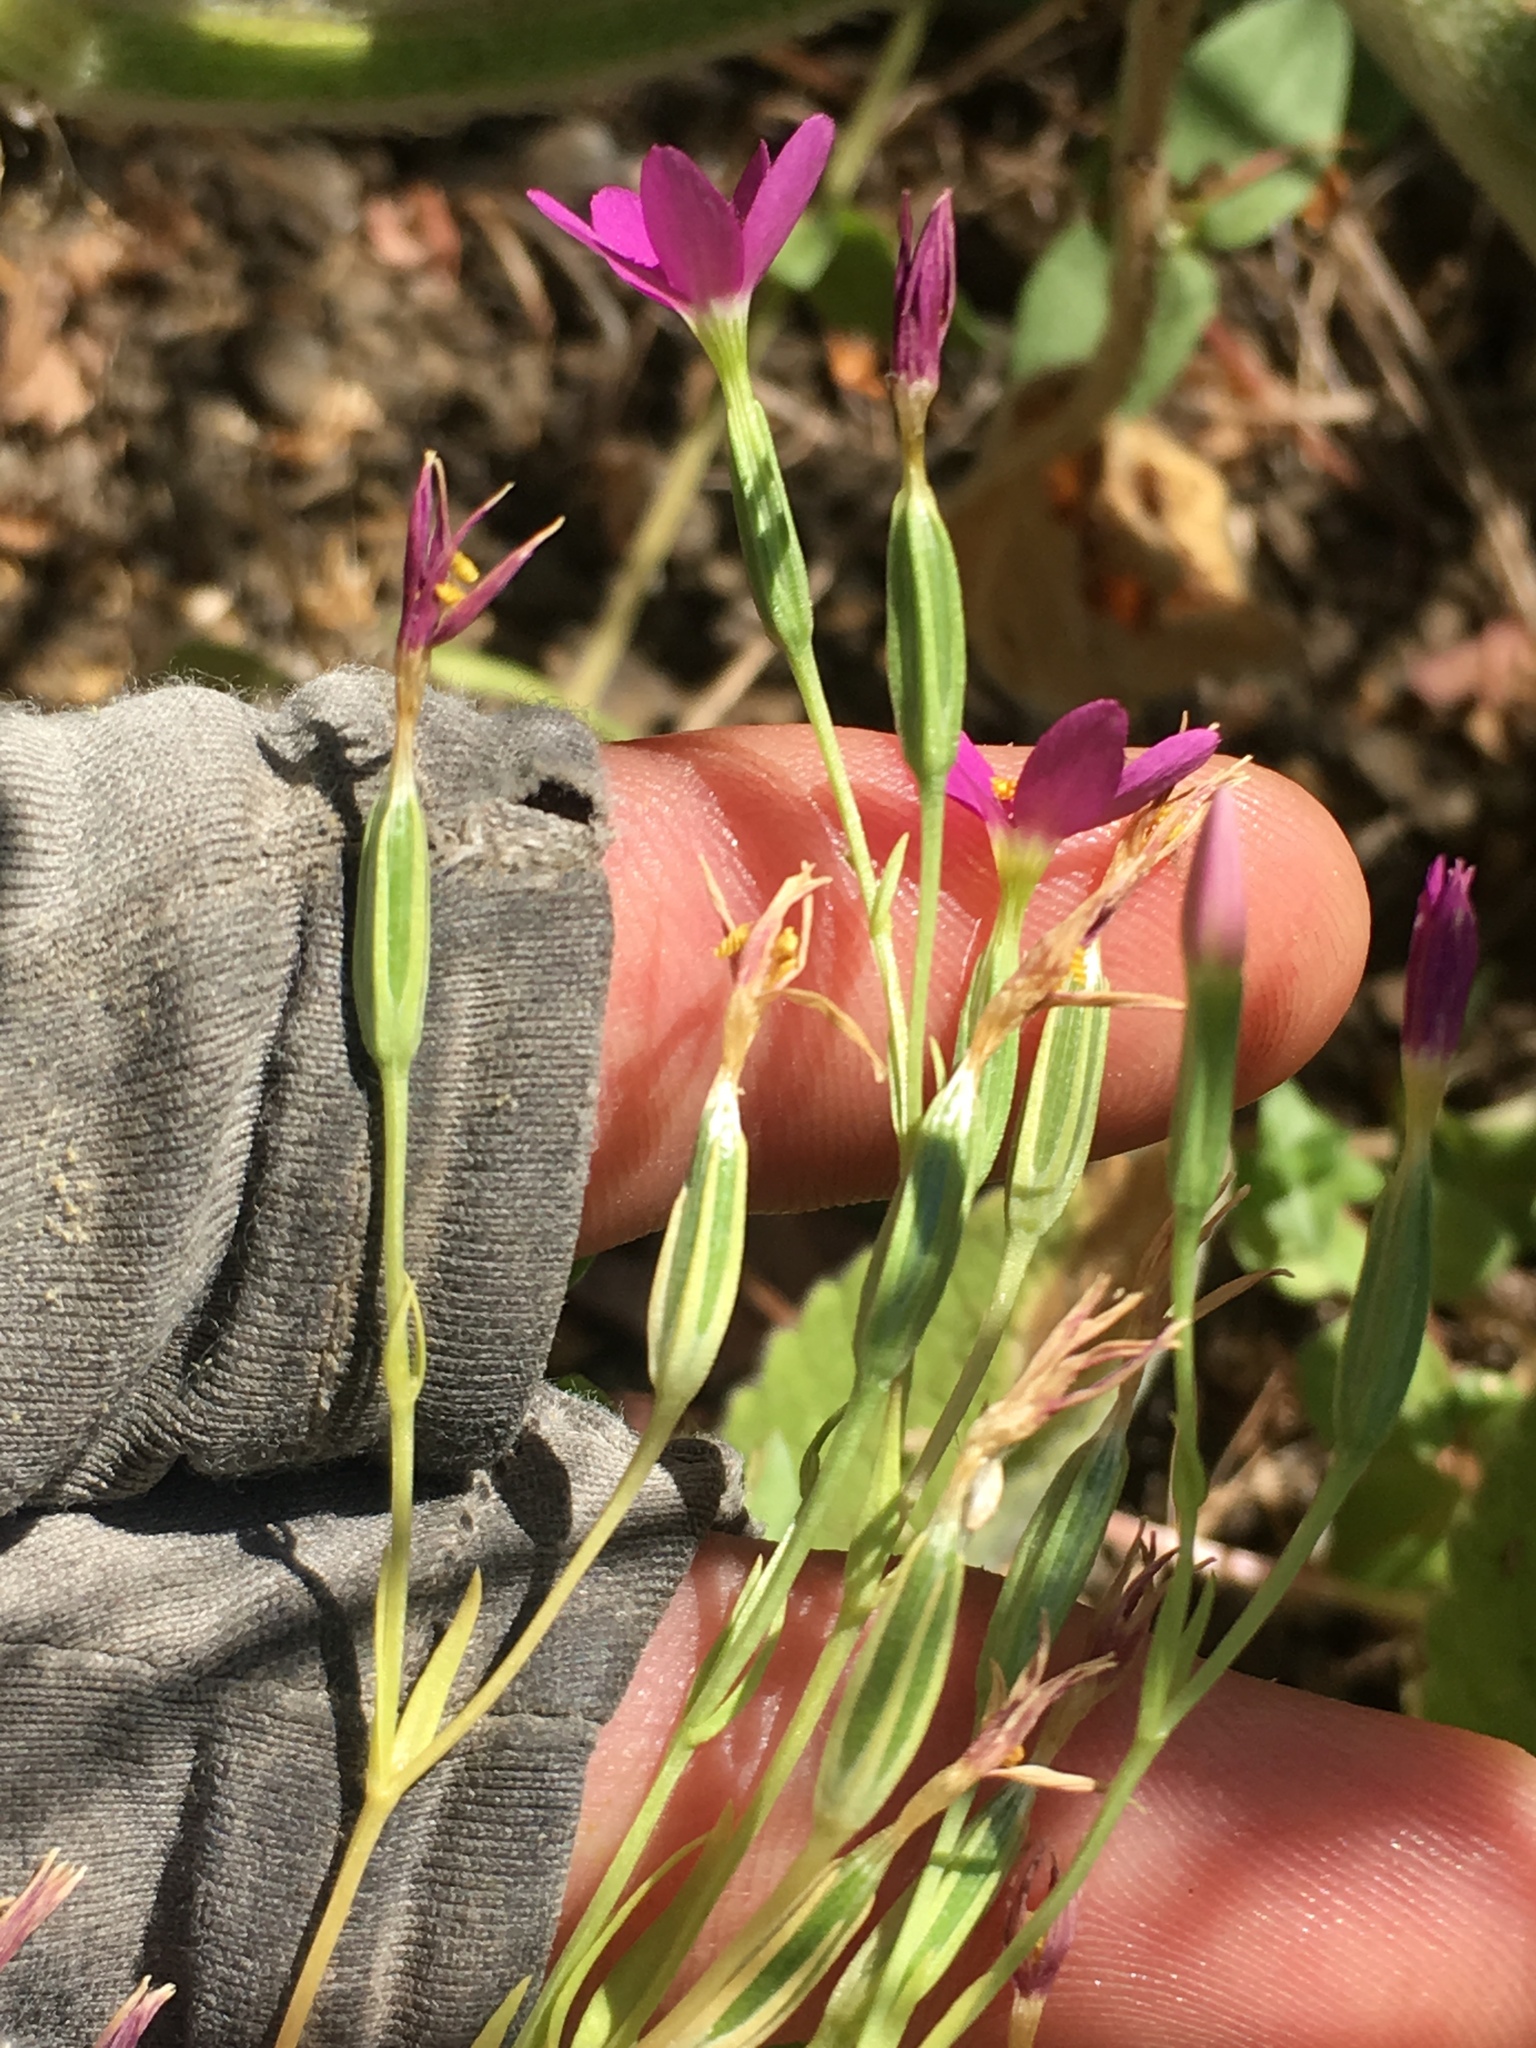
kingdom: Plantae
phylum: Tracheophyta
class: Magnoliopsida
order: Gentianales
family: Gentianaceae
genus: Zeltnera
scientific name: Zeltnera venusta
